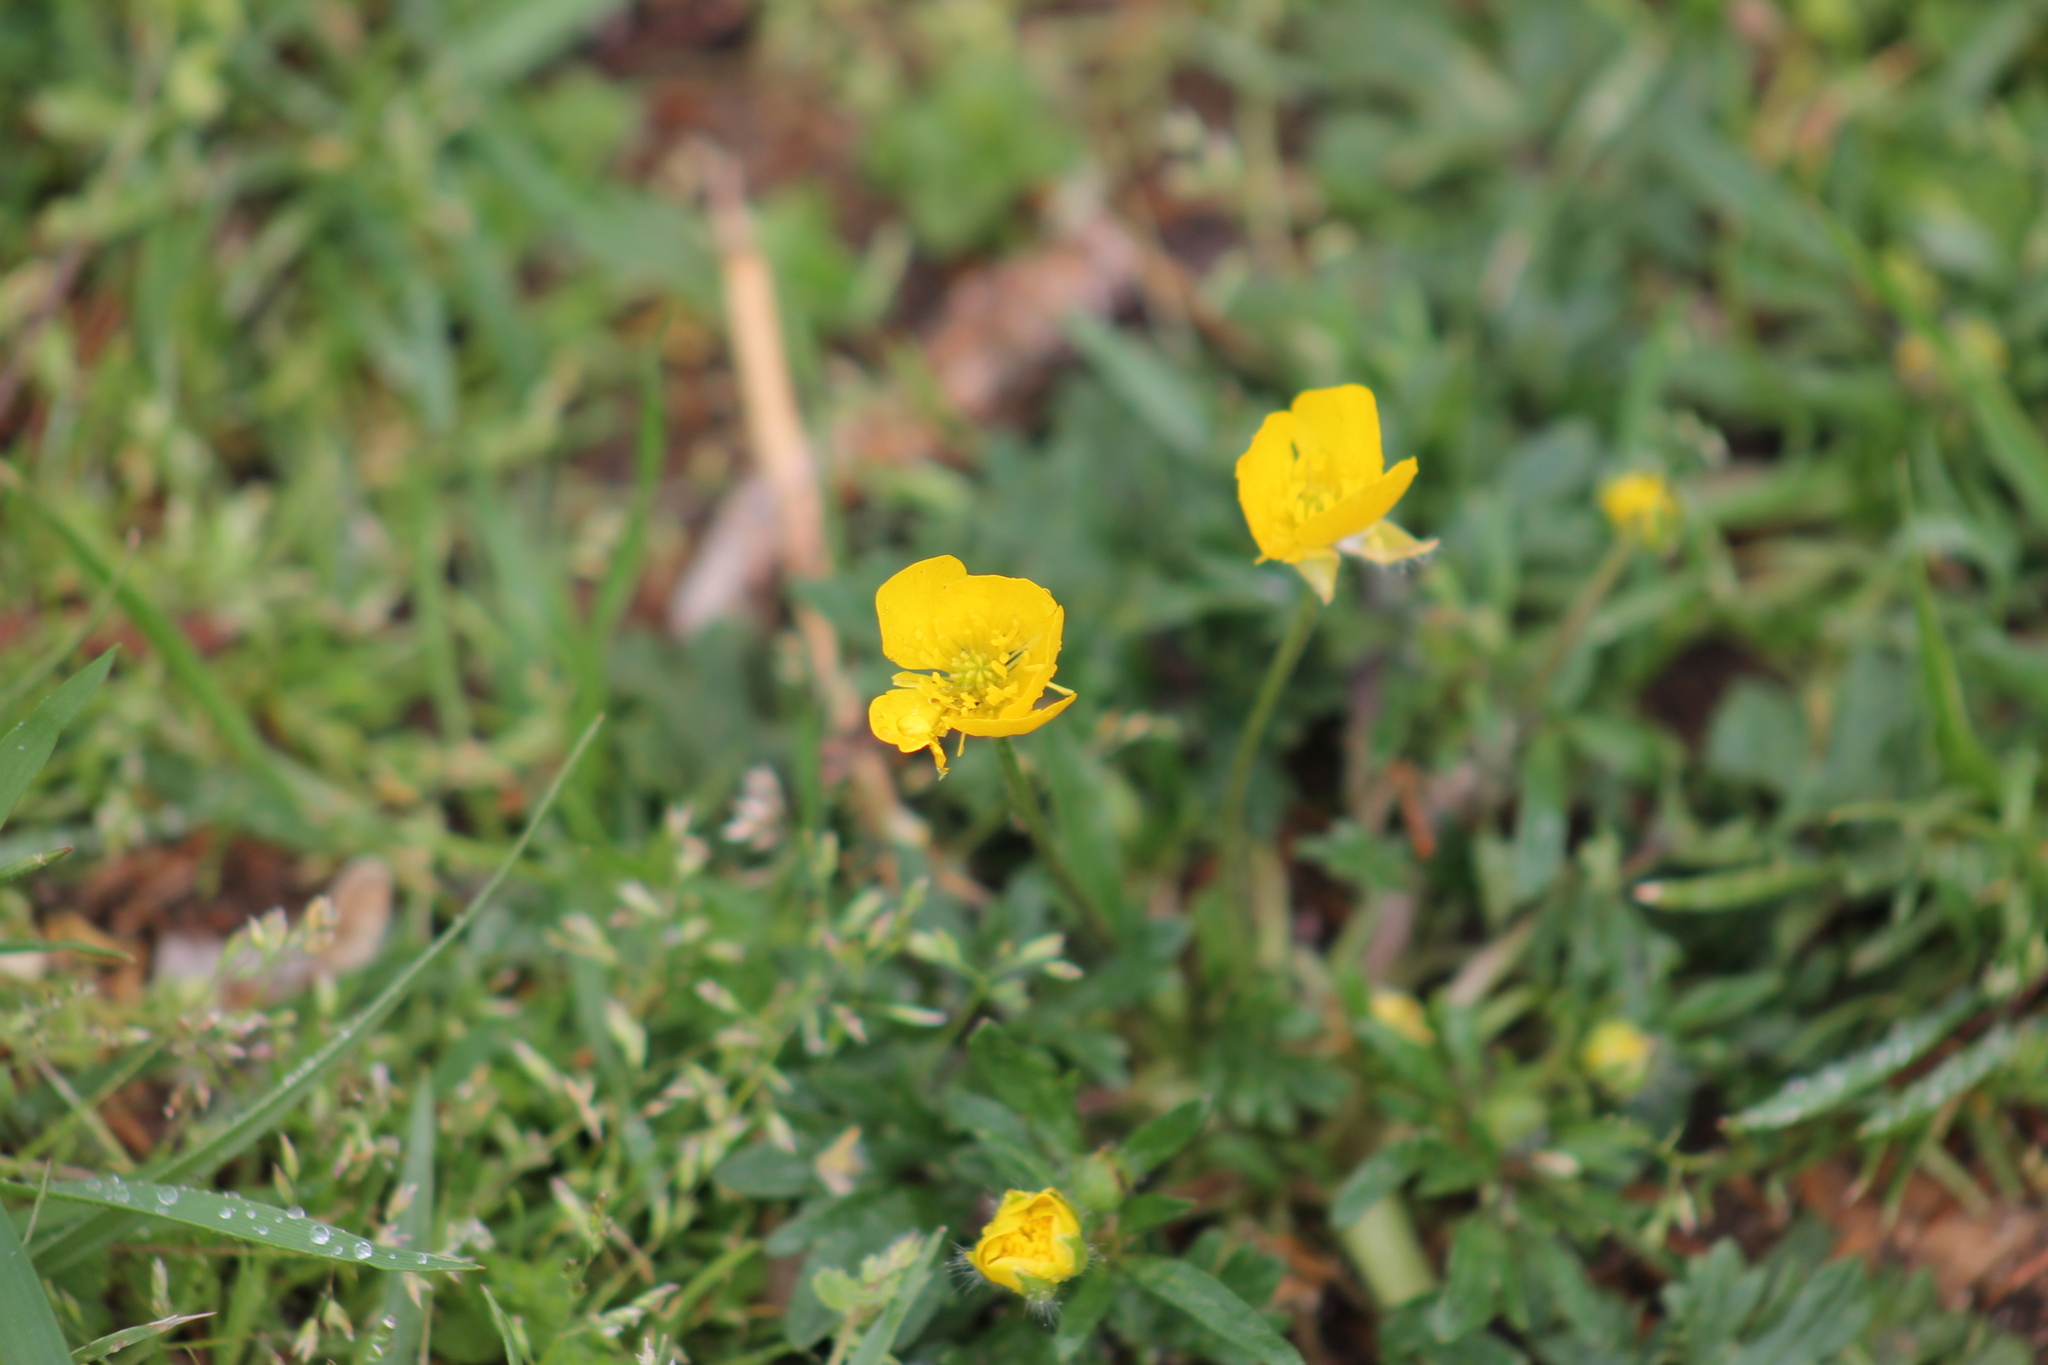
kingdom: Plantae
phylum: Tracheophyta
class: Magnoliopsida
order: Ranunculales
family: Ranunculaceae
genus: Ranunculus
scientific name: Ranunculus bulbosus
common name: Bulbous buttercup
